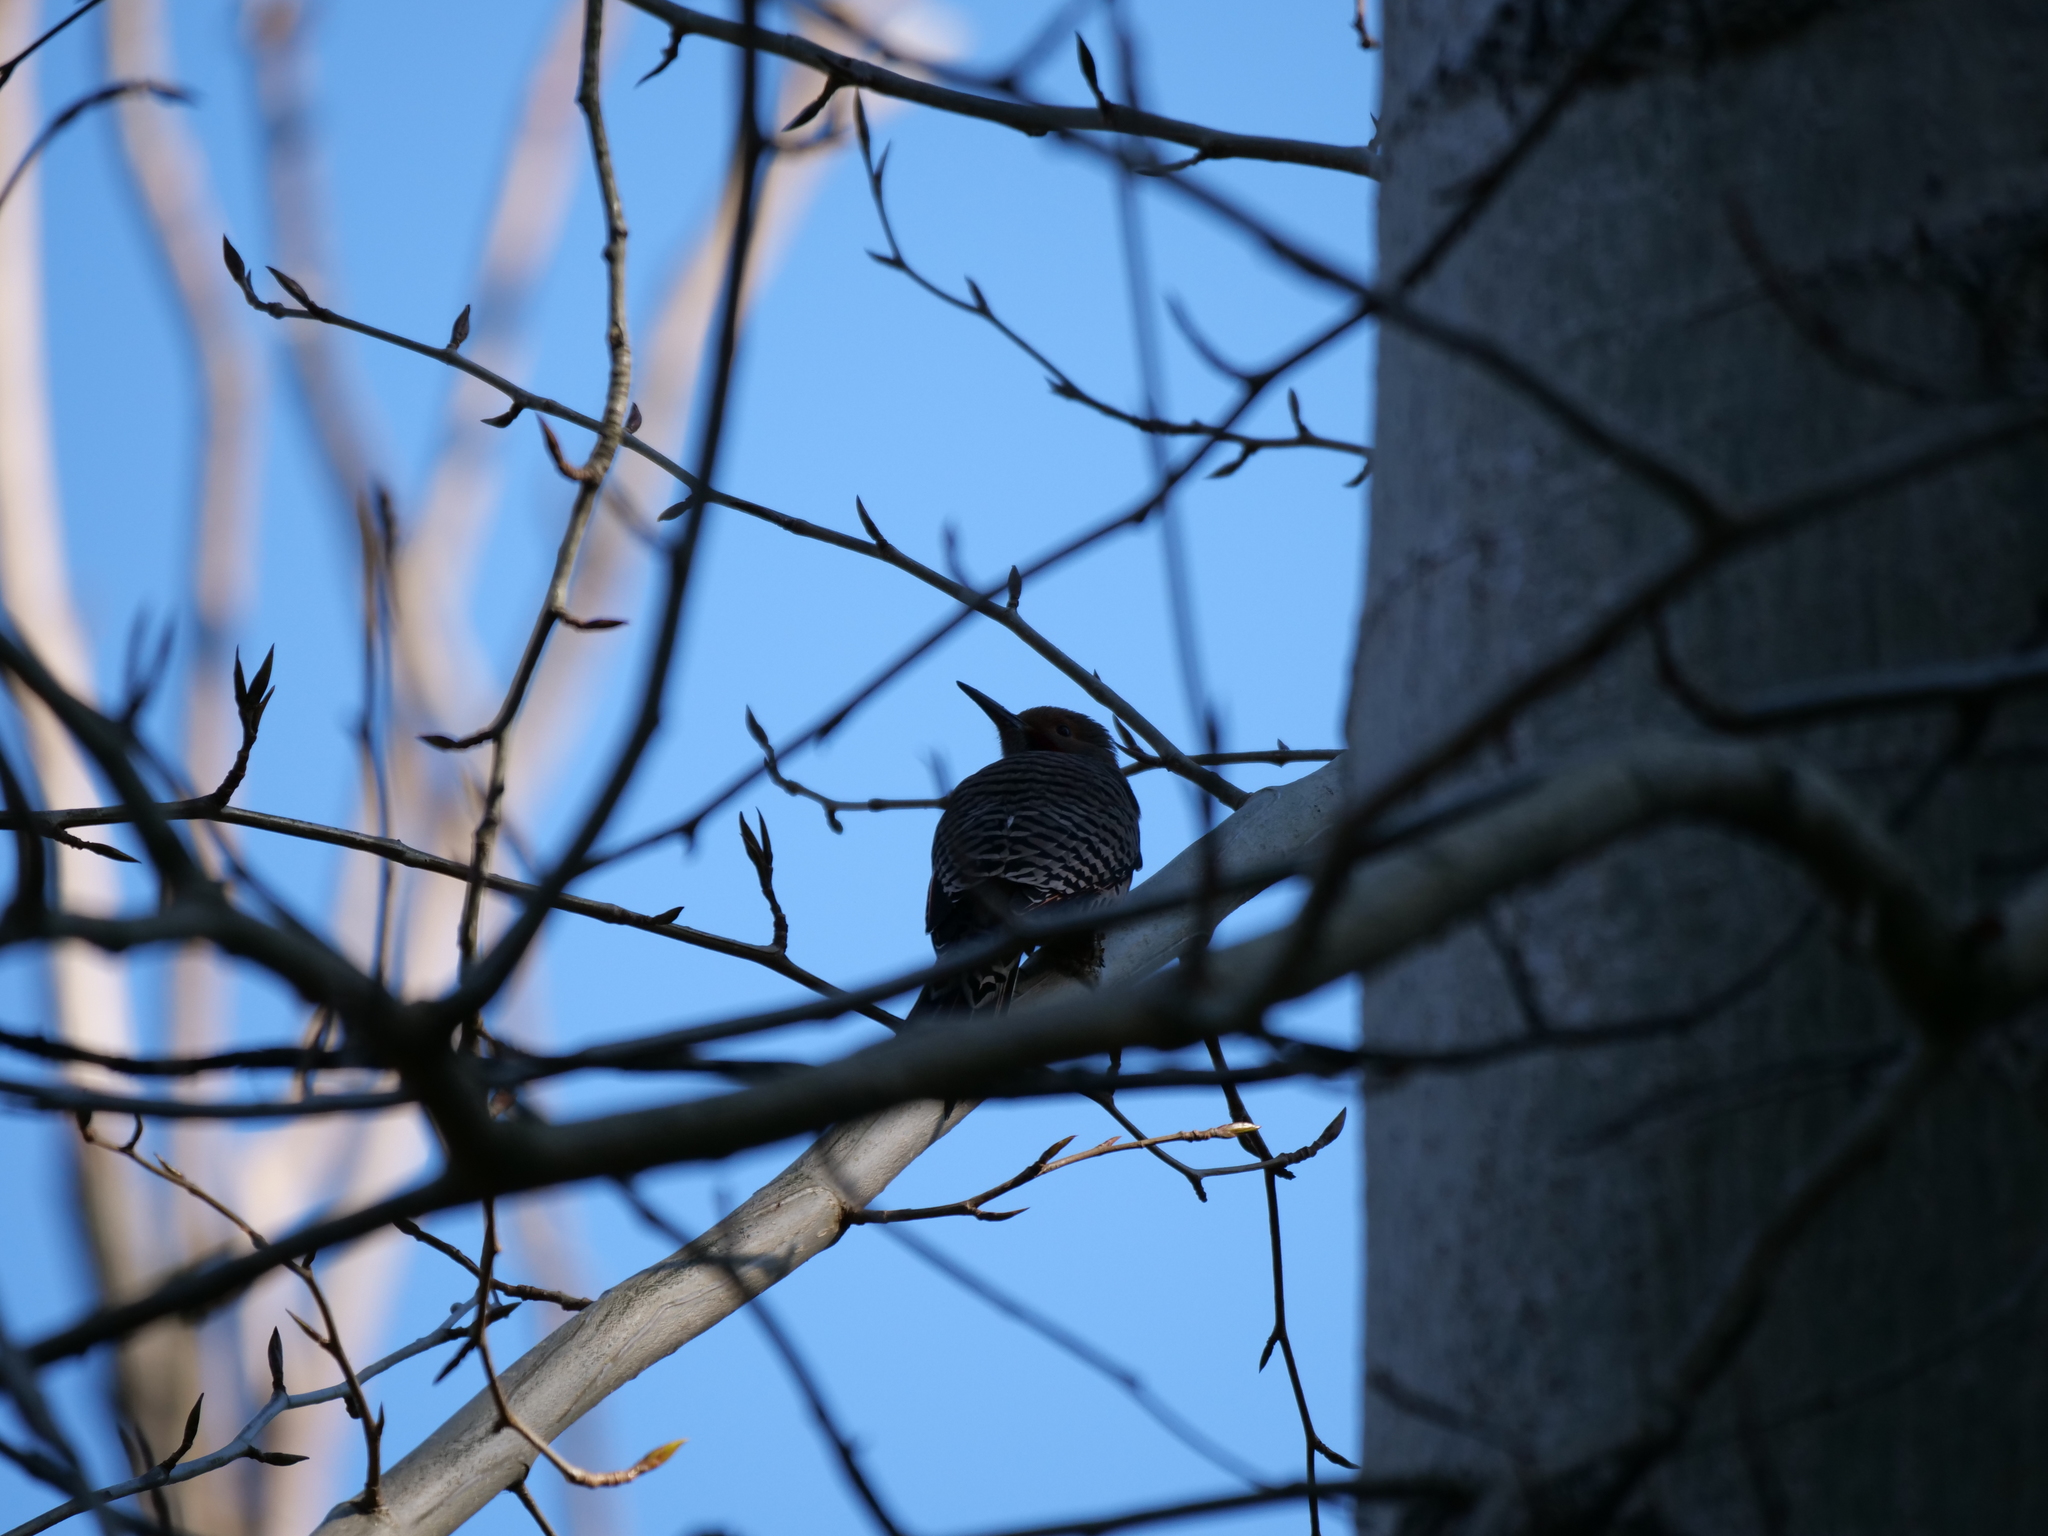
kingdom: Animalia
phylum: Chordata
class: Aves
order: Piciformes
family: Picidae
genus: Colaptes
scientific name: Colaptes auratus
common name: Northern flicker
